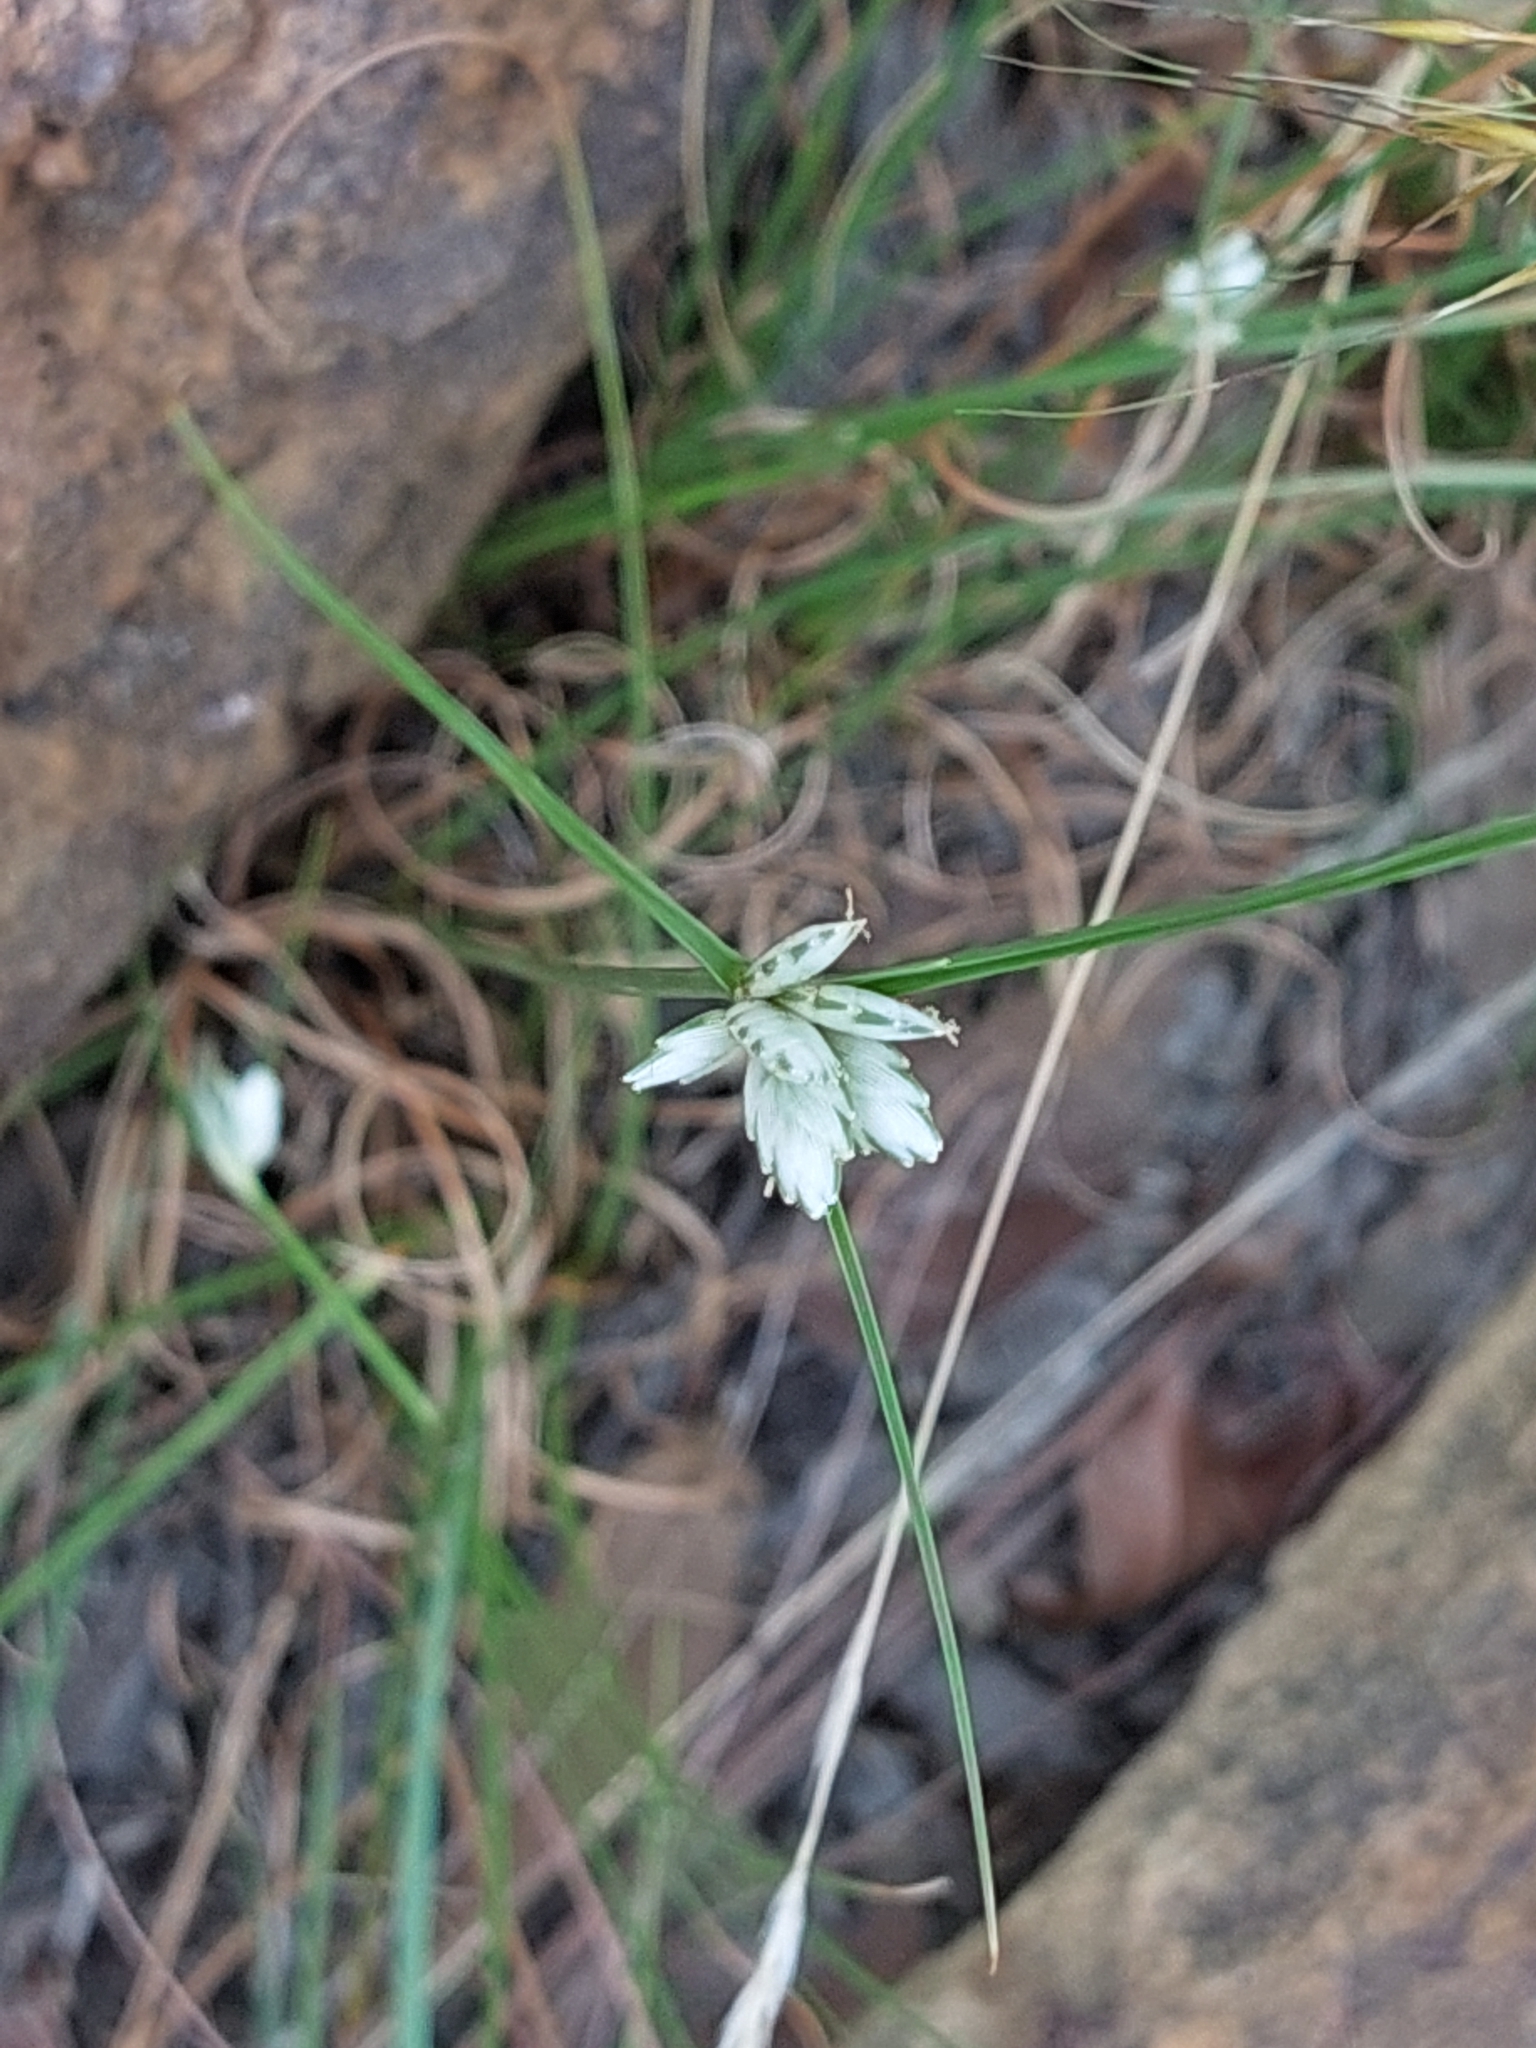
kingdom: Plantae
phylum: Tracheophyta
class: Liliopsida
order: Poales
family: Cyperaceae
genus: Cyperus
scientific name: Cyperus margaritaceus
